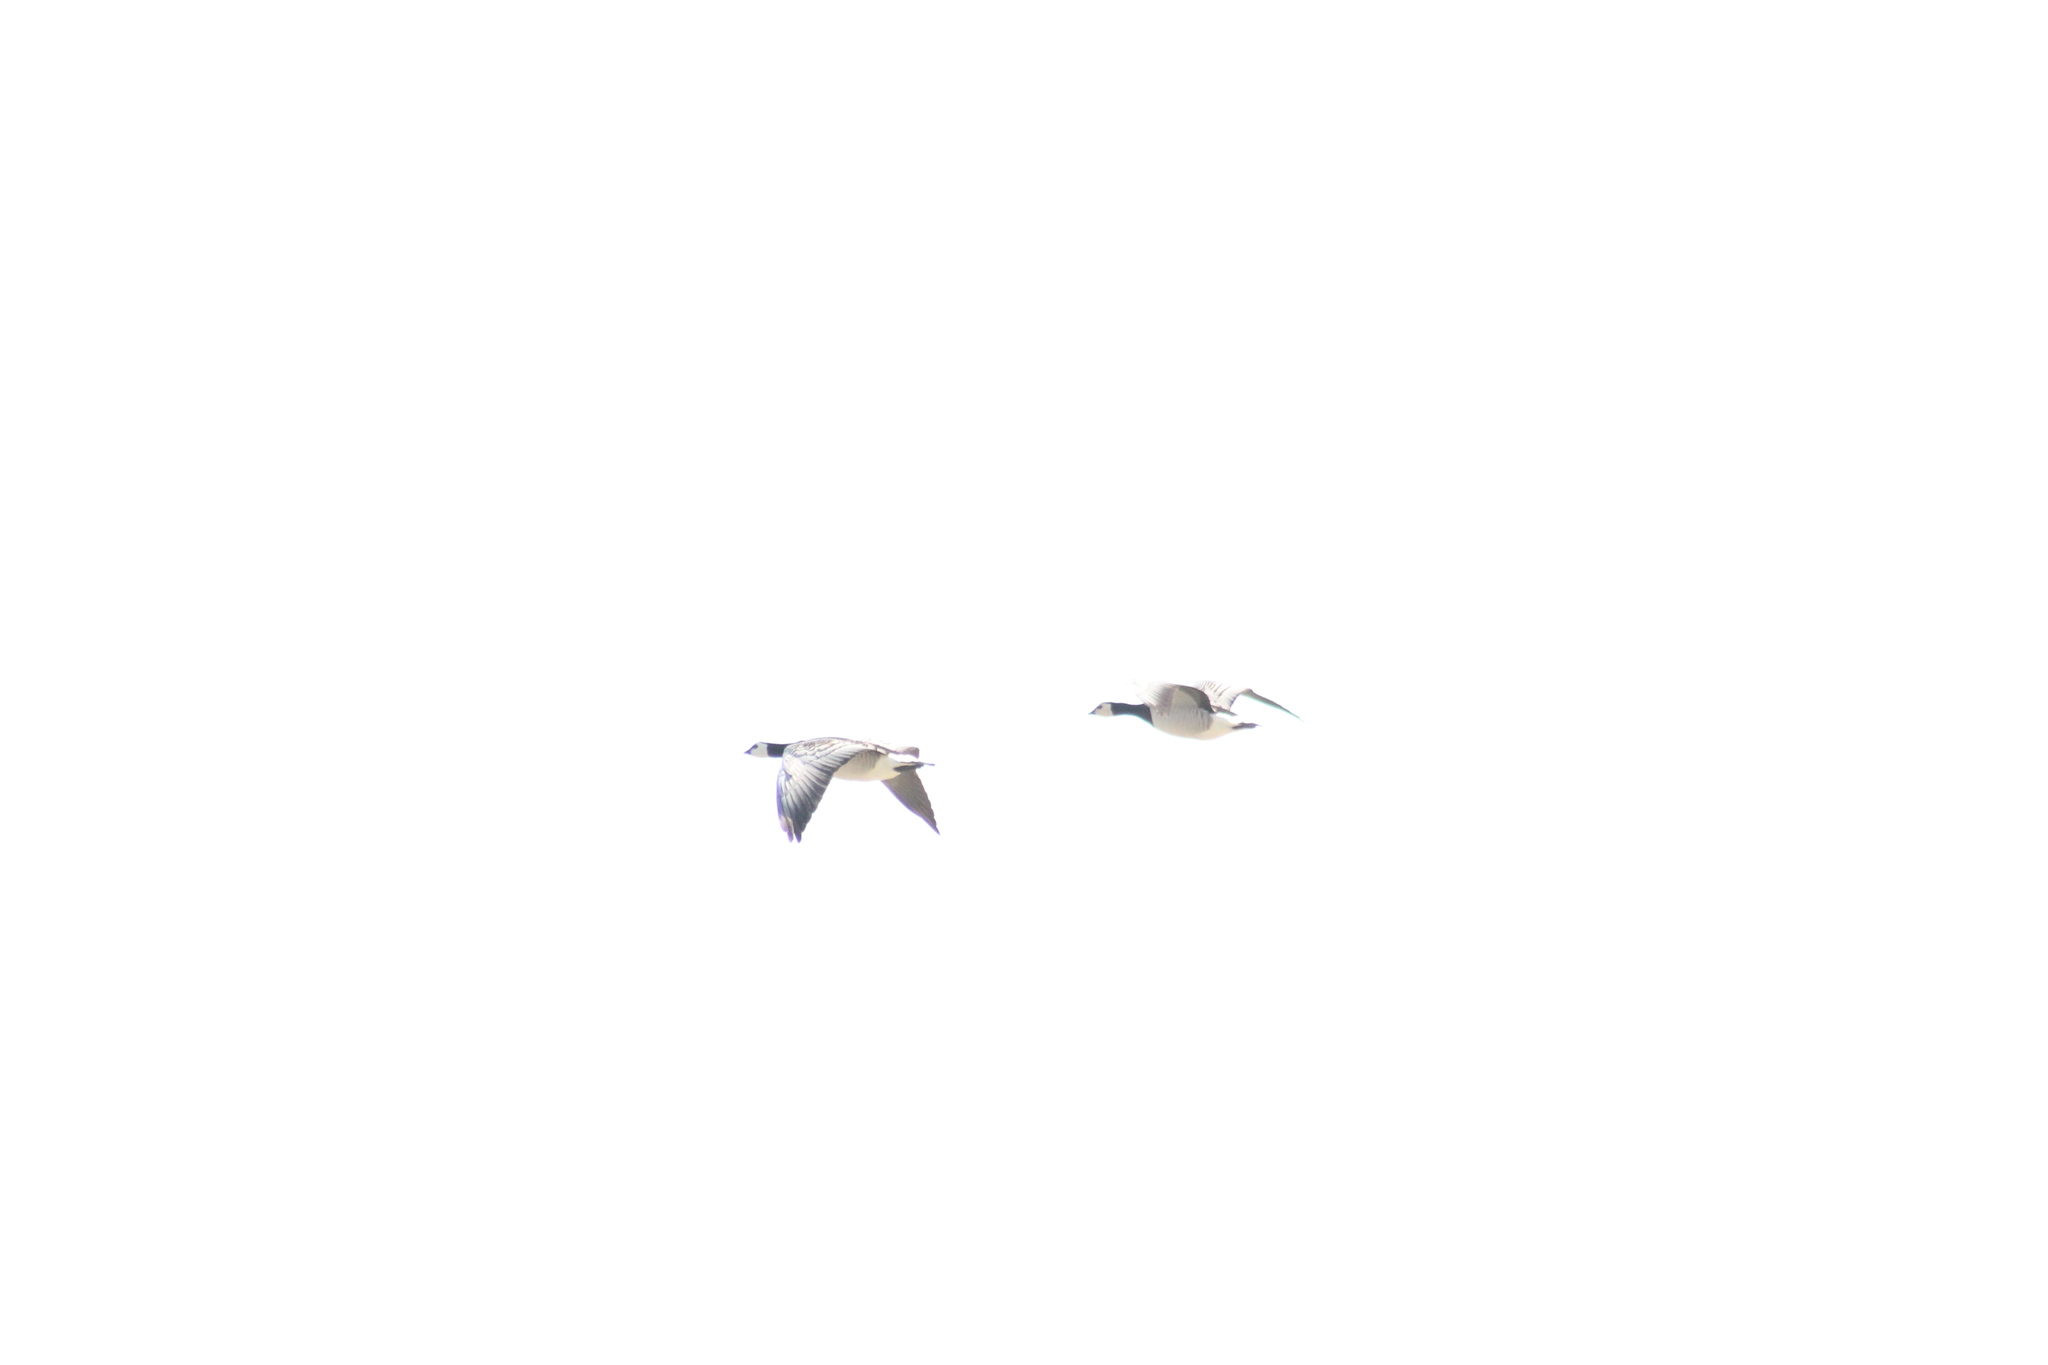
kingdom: Animalia
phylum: Chordata
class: Aves
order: Anseriformes
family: Anatidae
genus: Branta
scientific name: Branta leucopsis
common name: Barnacle goose
